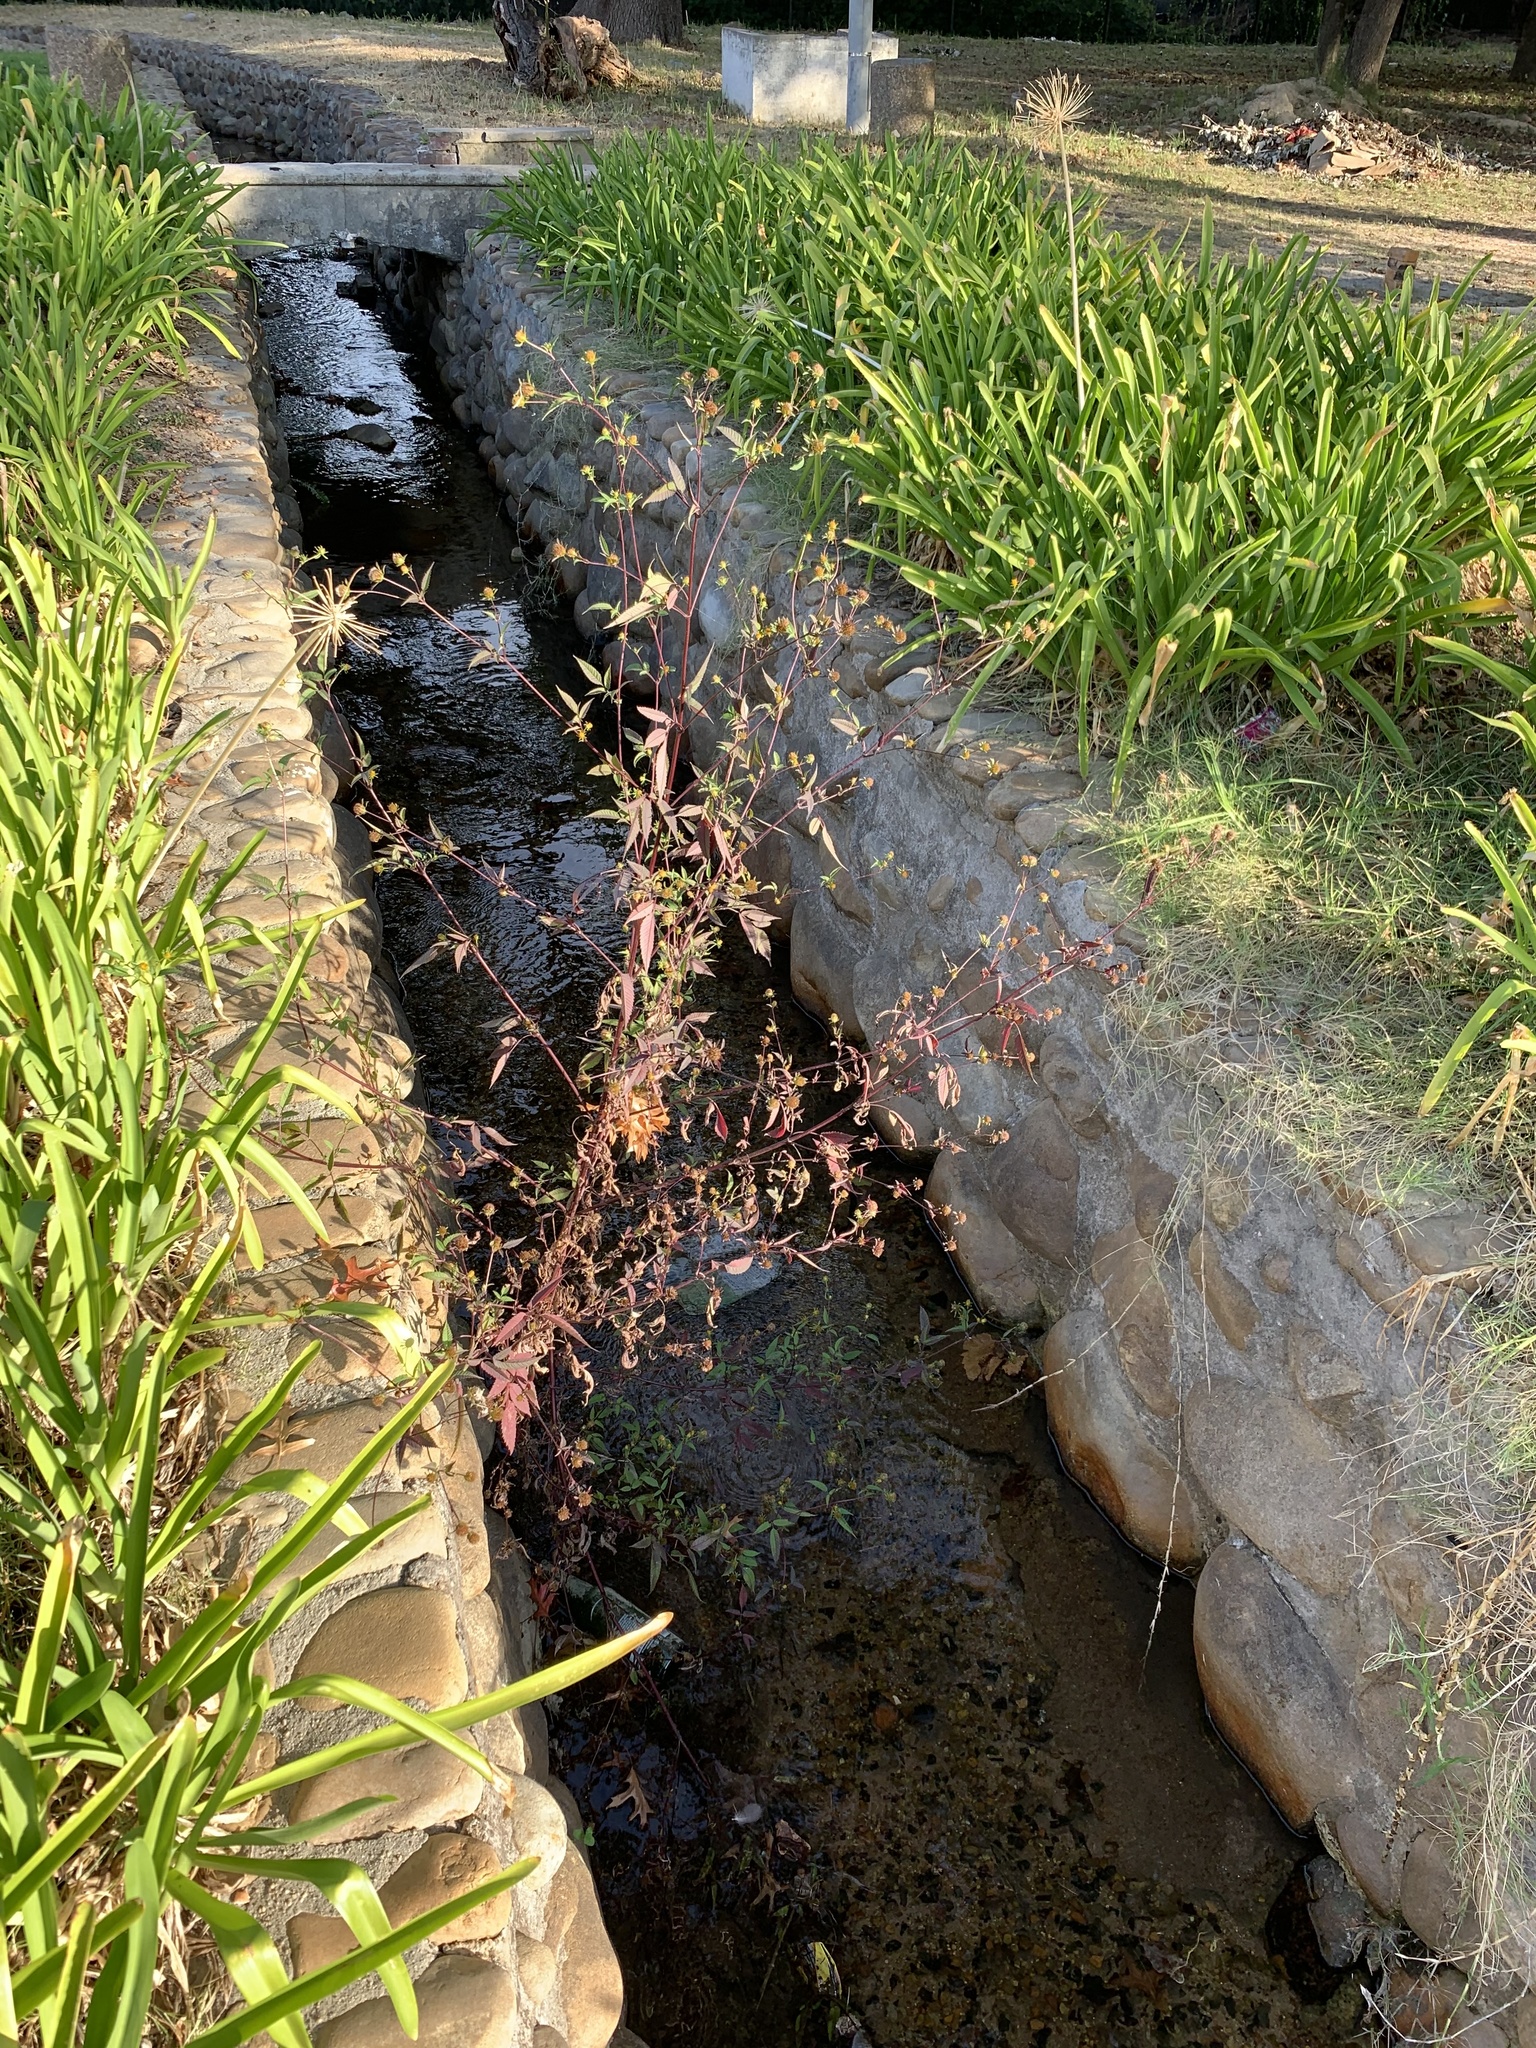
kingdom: Plantae
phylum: Tracheophyta
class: Magnoliopsida
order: Asterales
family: Asteraceae
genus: Bidens
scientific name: Bidens frondosa
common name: Beggarticks
